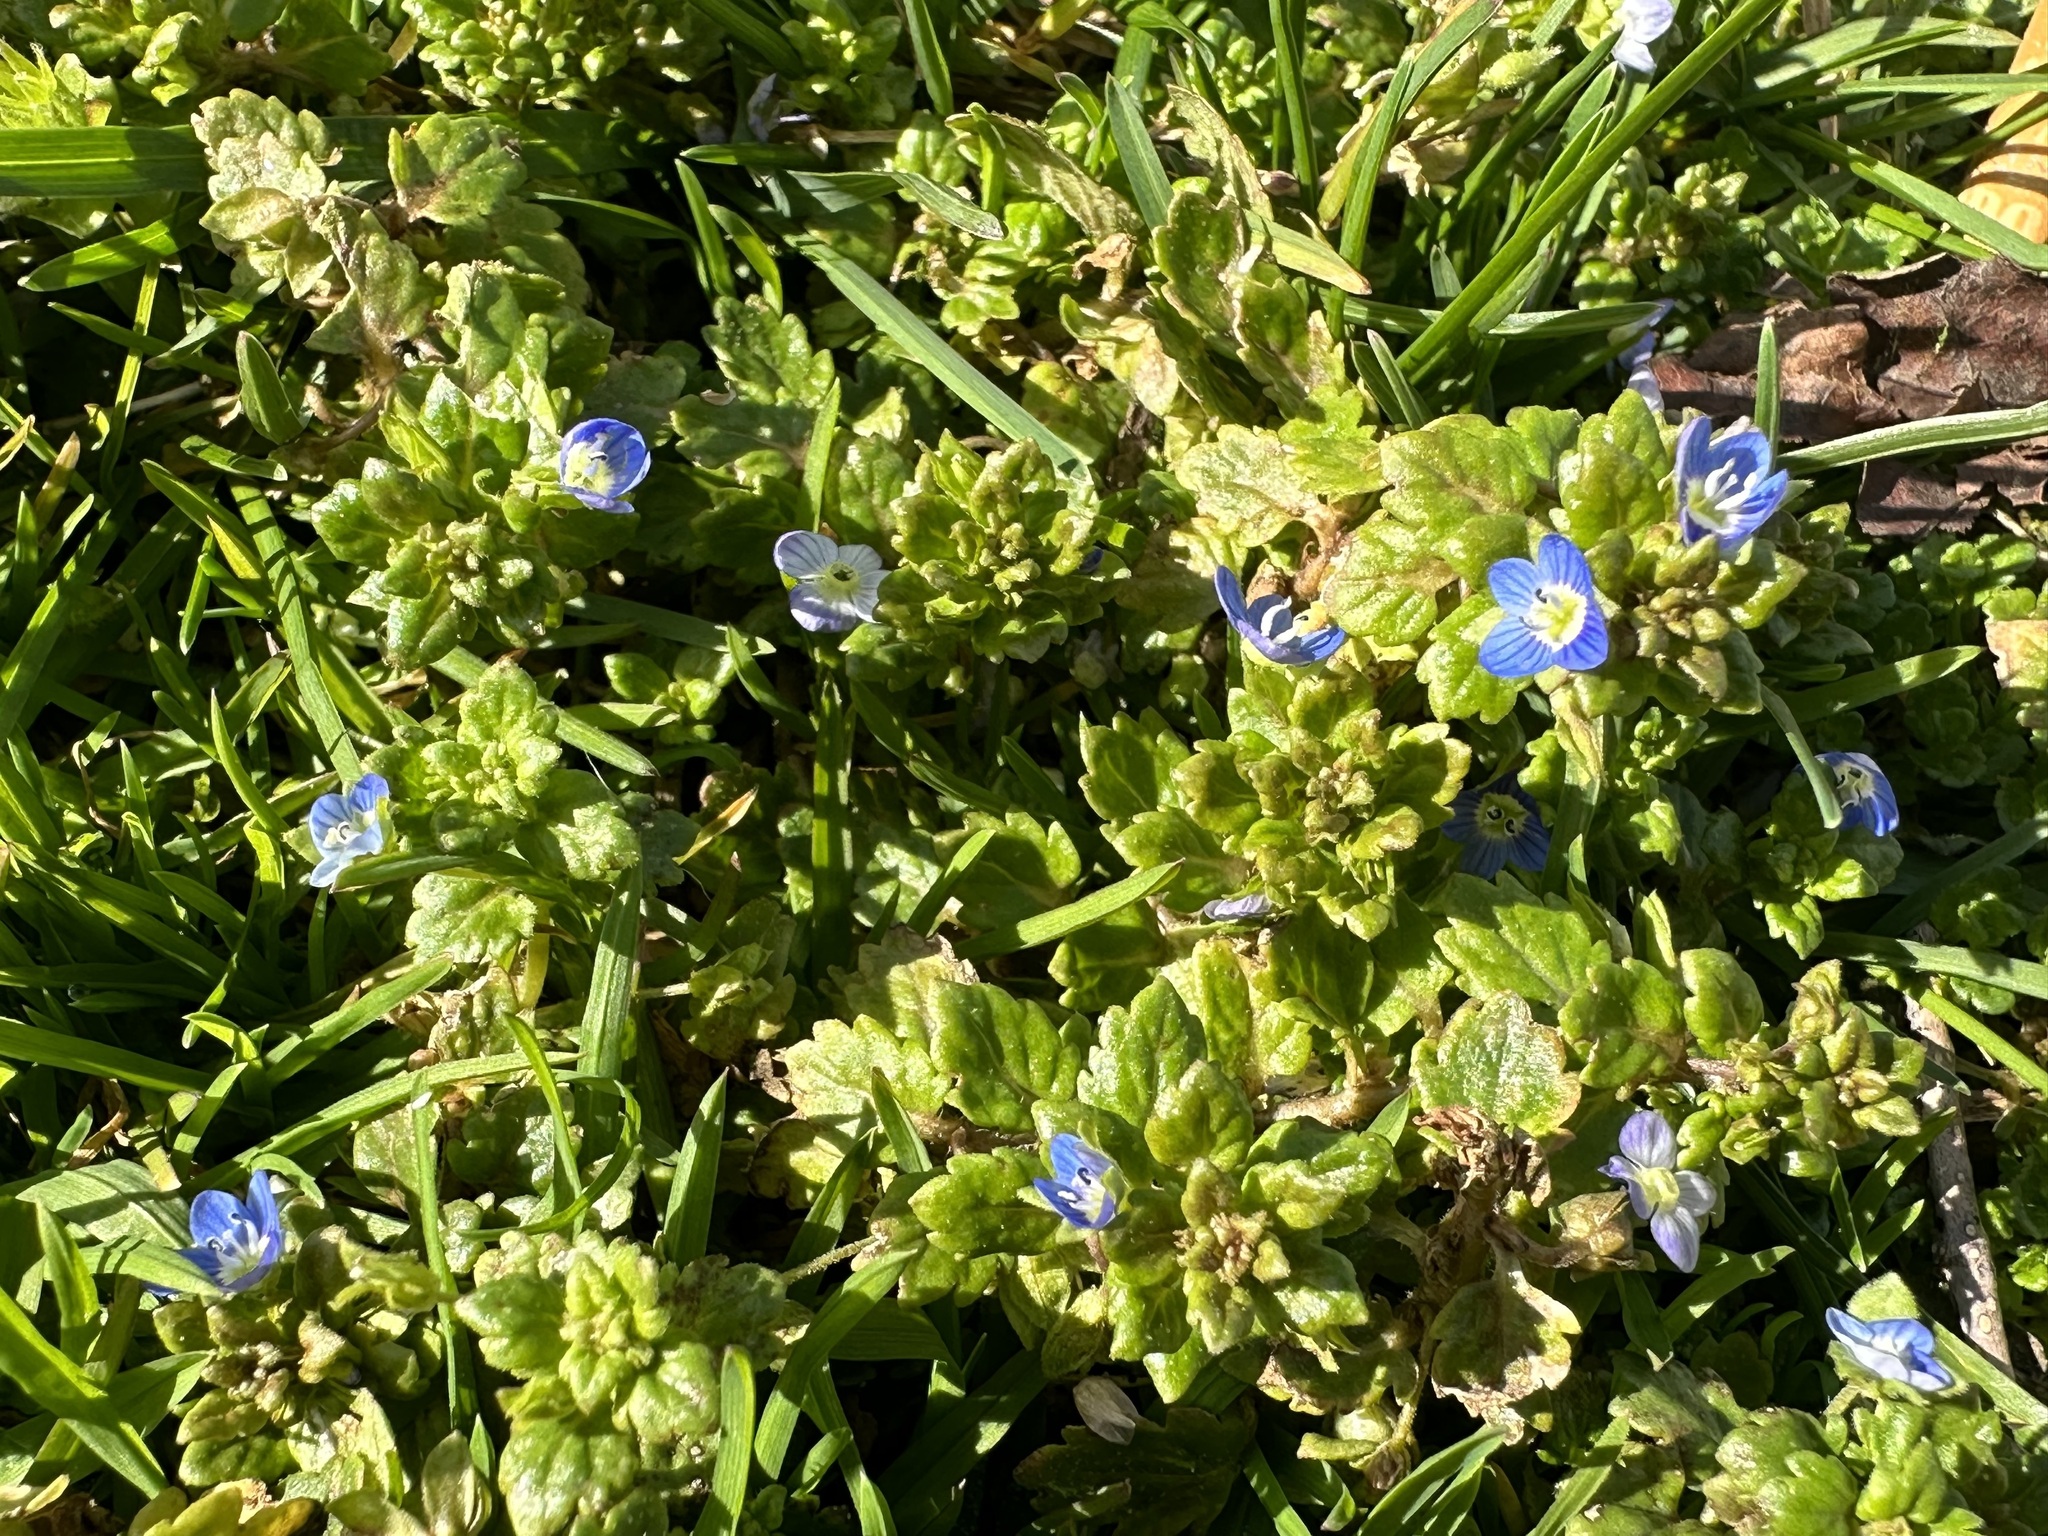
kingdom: Plantae
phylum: Tracheophyta
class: Magnoliopsida
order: Lamiales
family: Plantaginaceae
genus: Veronica
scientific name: Veronica polita
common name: Grey field-speedwell
